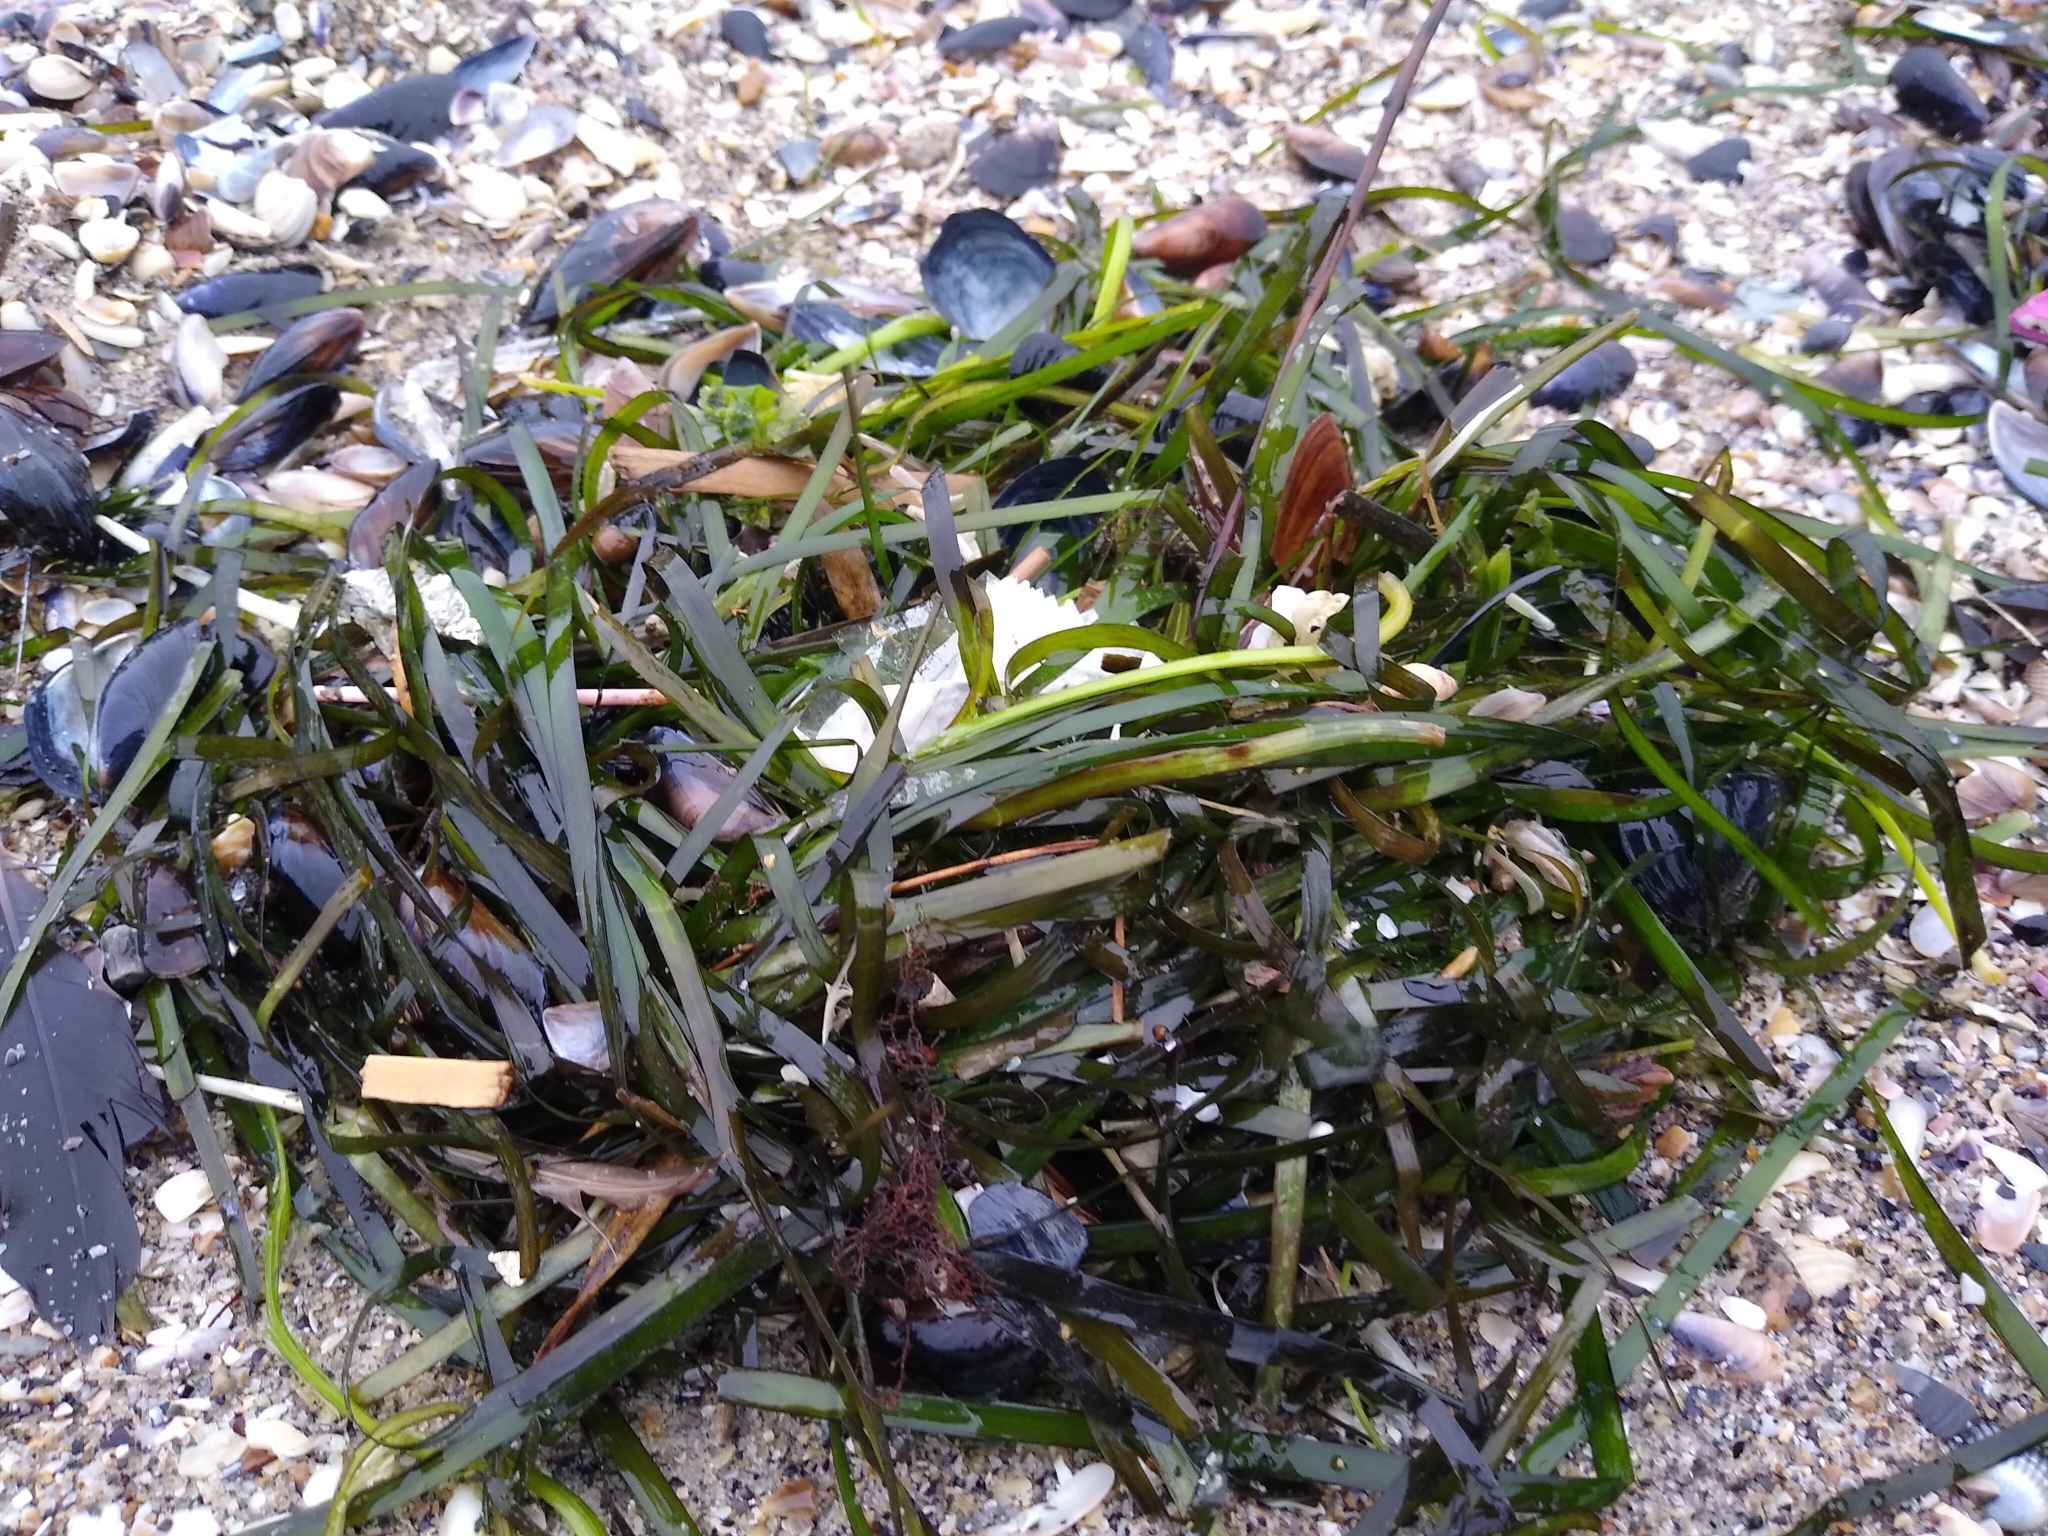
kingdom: Plantae
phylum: Tracheophyta
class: Liliopsida
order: Alismatales
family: Zosteraceae
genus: Zostera
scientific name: Zostera marina
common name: Eelgrass
